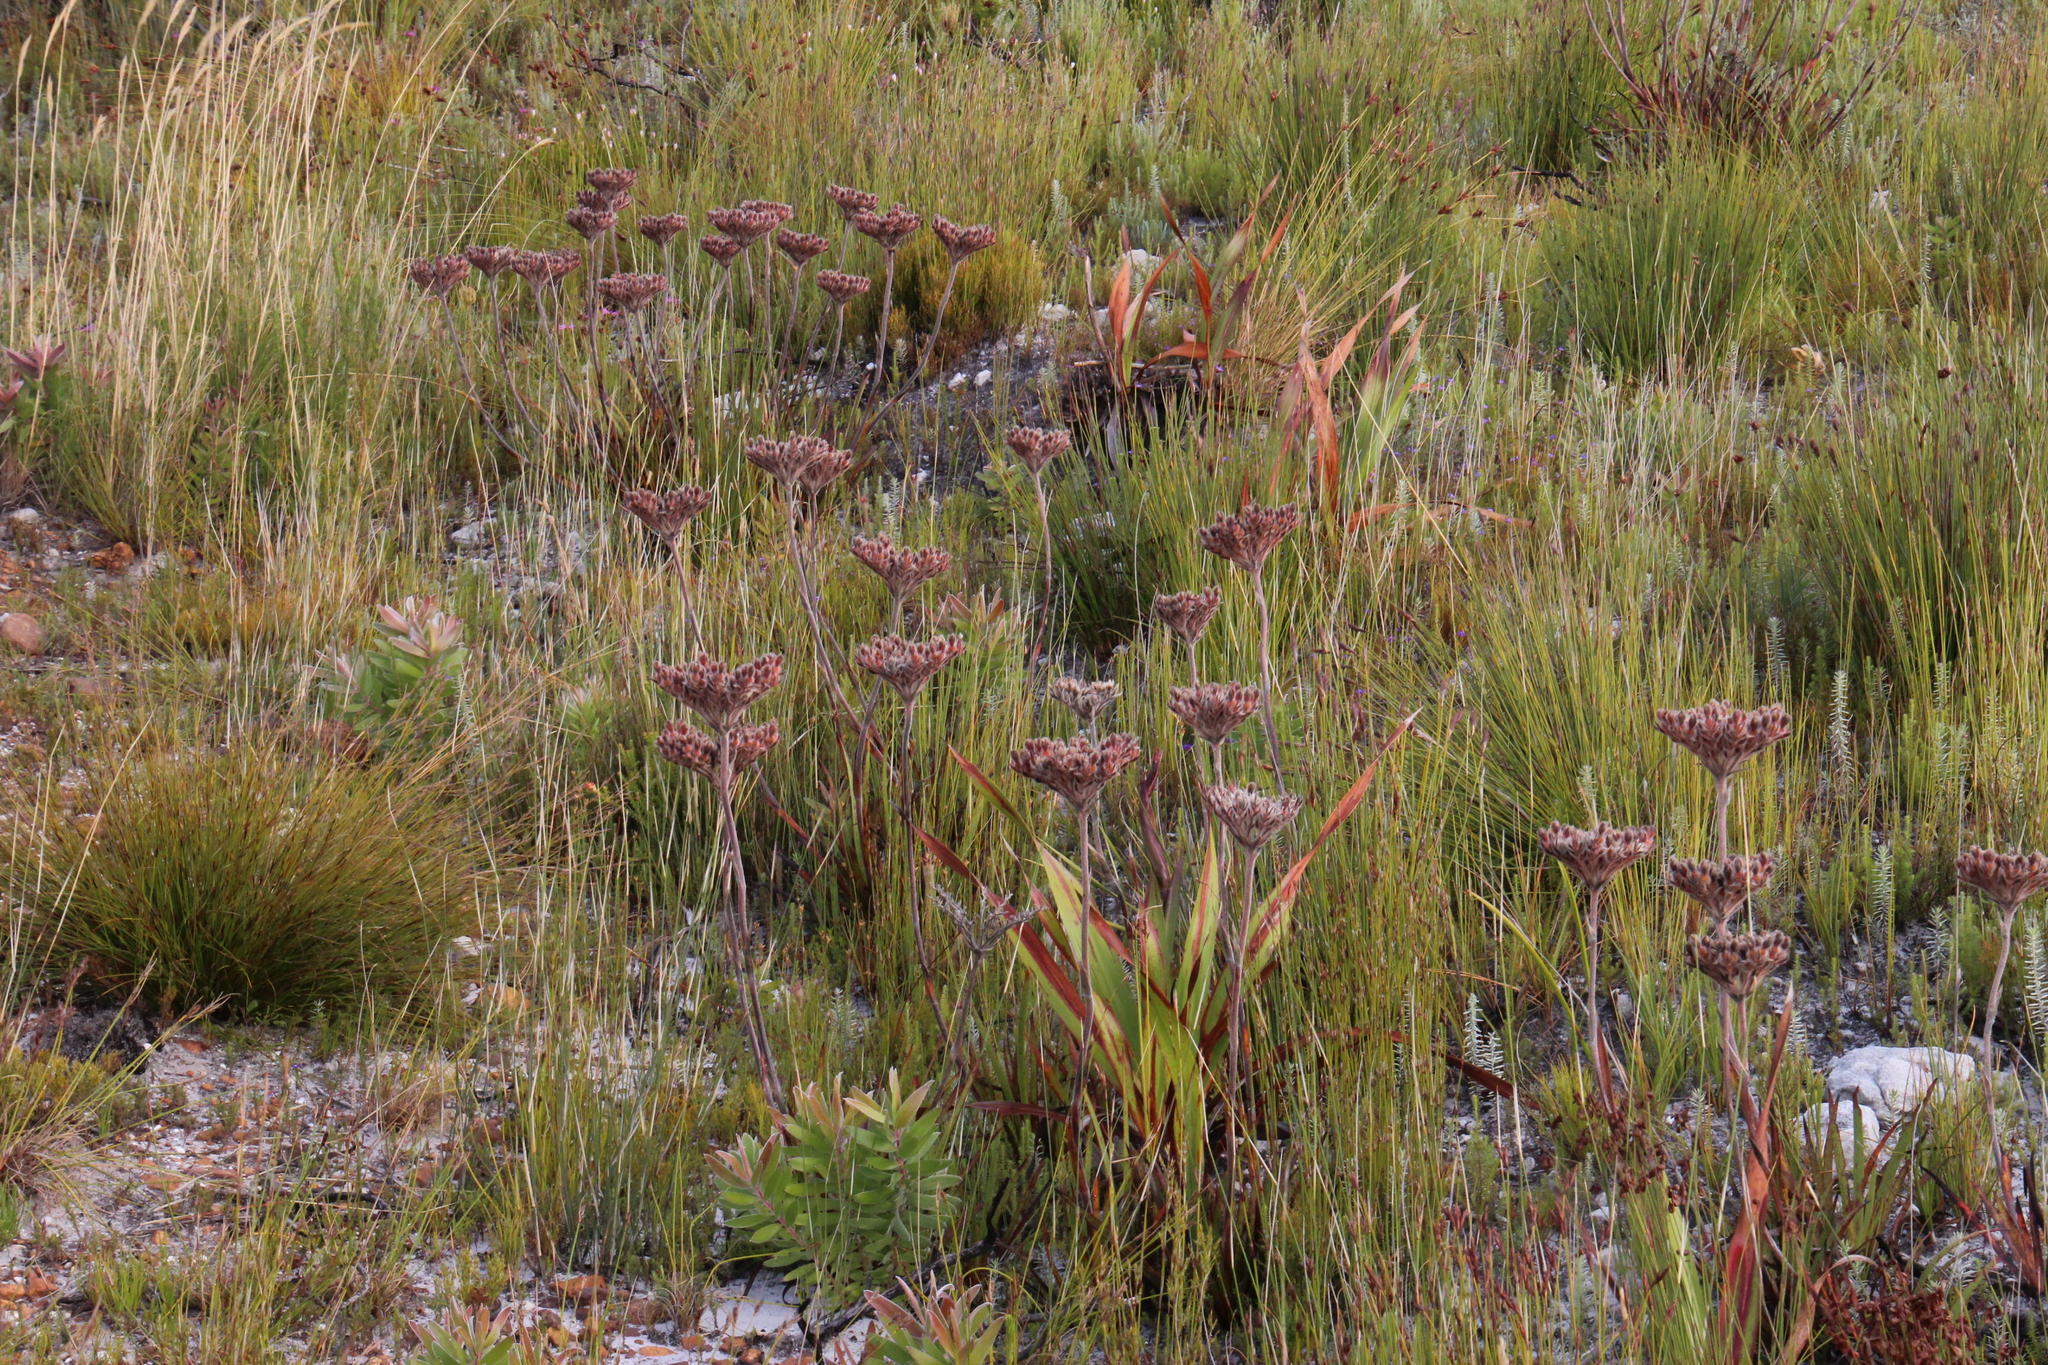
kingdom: Plantae
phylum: Tracheophyta
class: Liliopsida
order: Commelinales
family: Haemodoraceae
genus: Dilatris
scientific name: Dilatris pillansii
